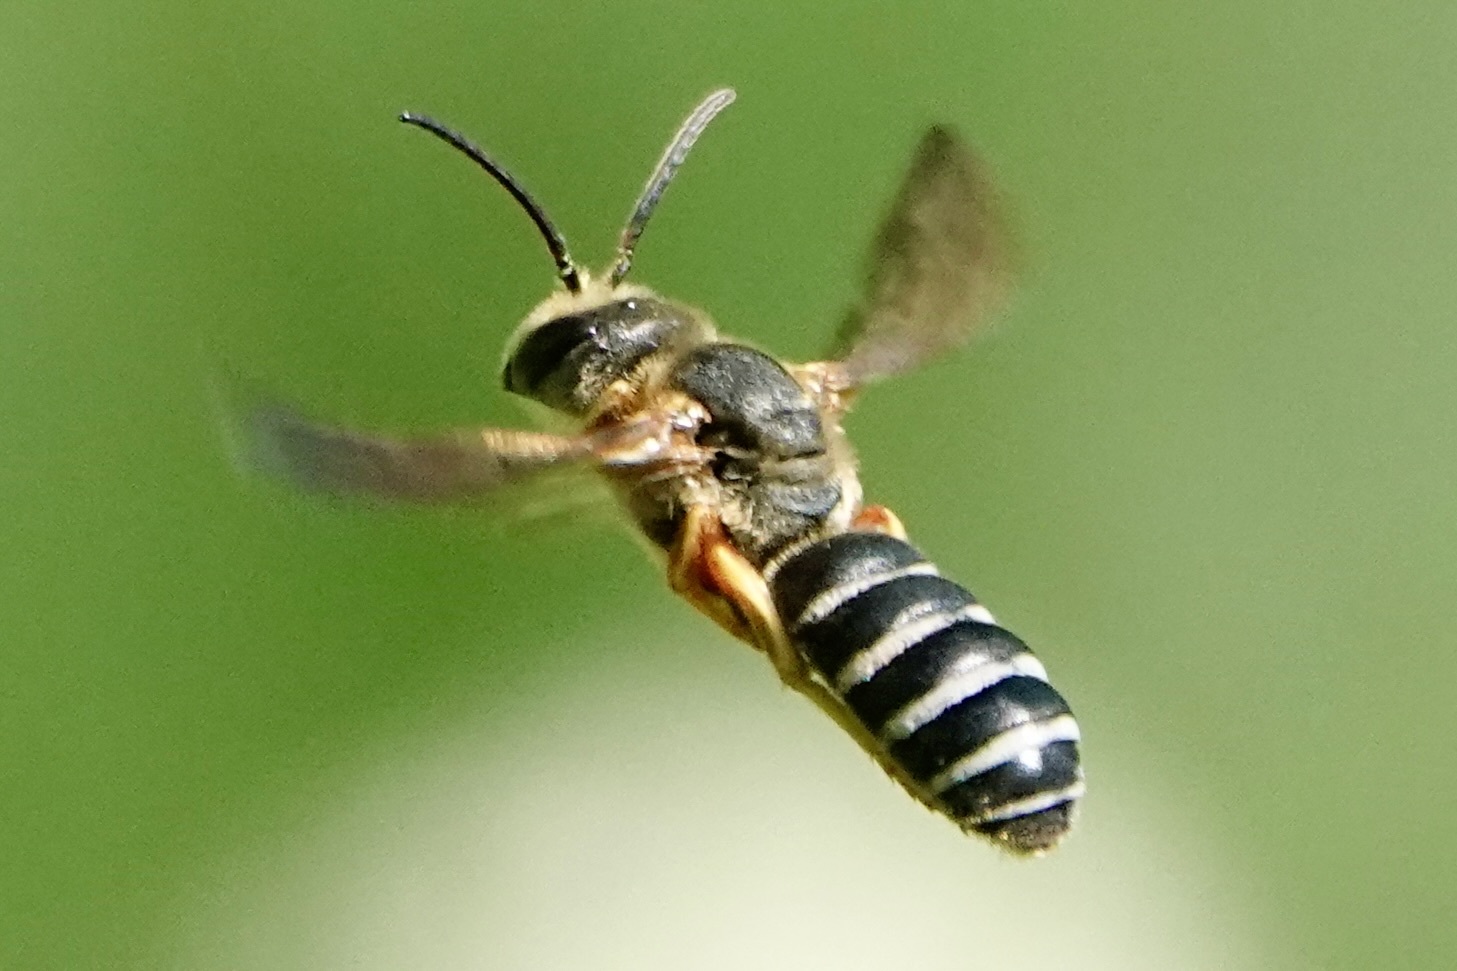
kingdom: Animalia
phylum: Arthropoda
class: Insecta
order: Hymenoptera
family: Halictidae
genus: Halictus
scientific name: Halictus parallelus
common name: Parallel-striped sweat bee
